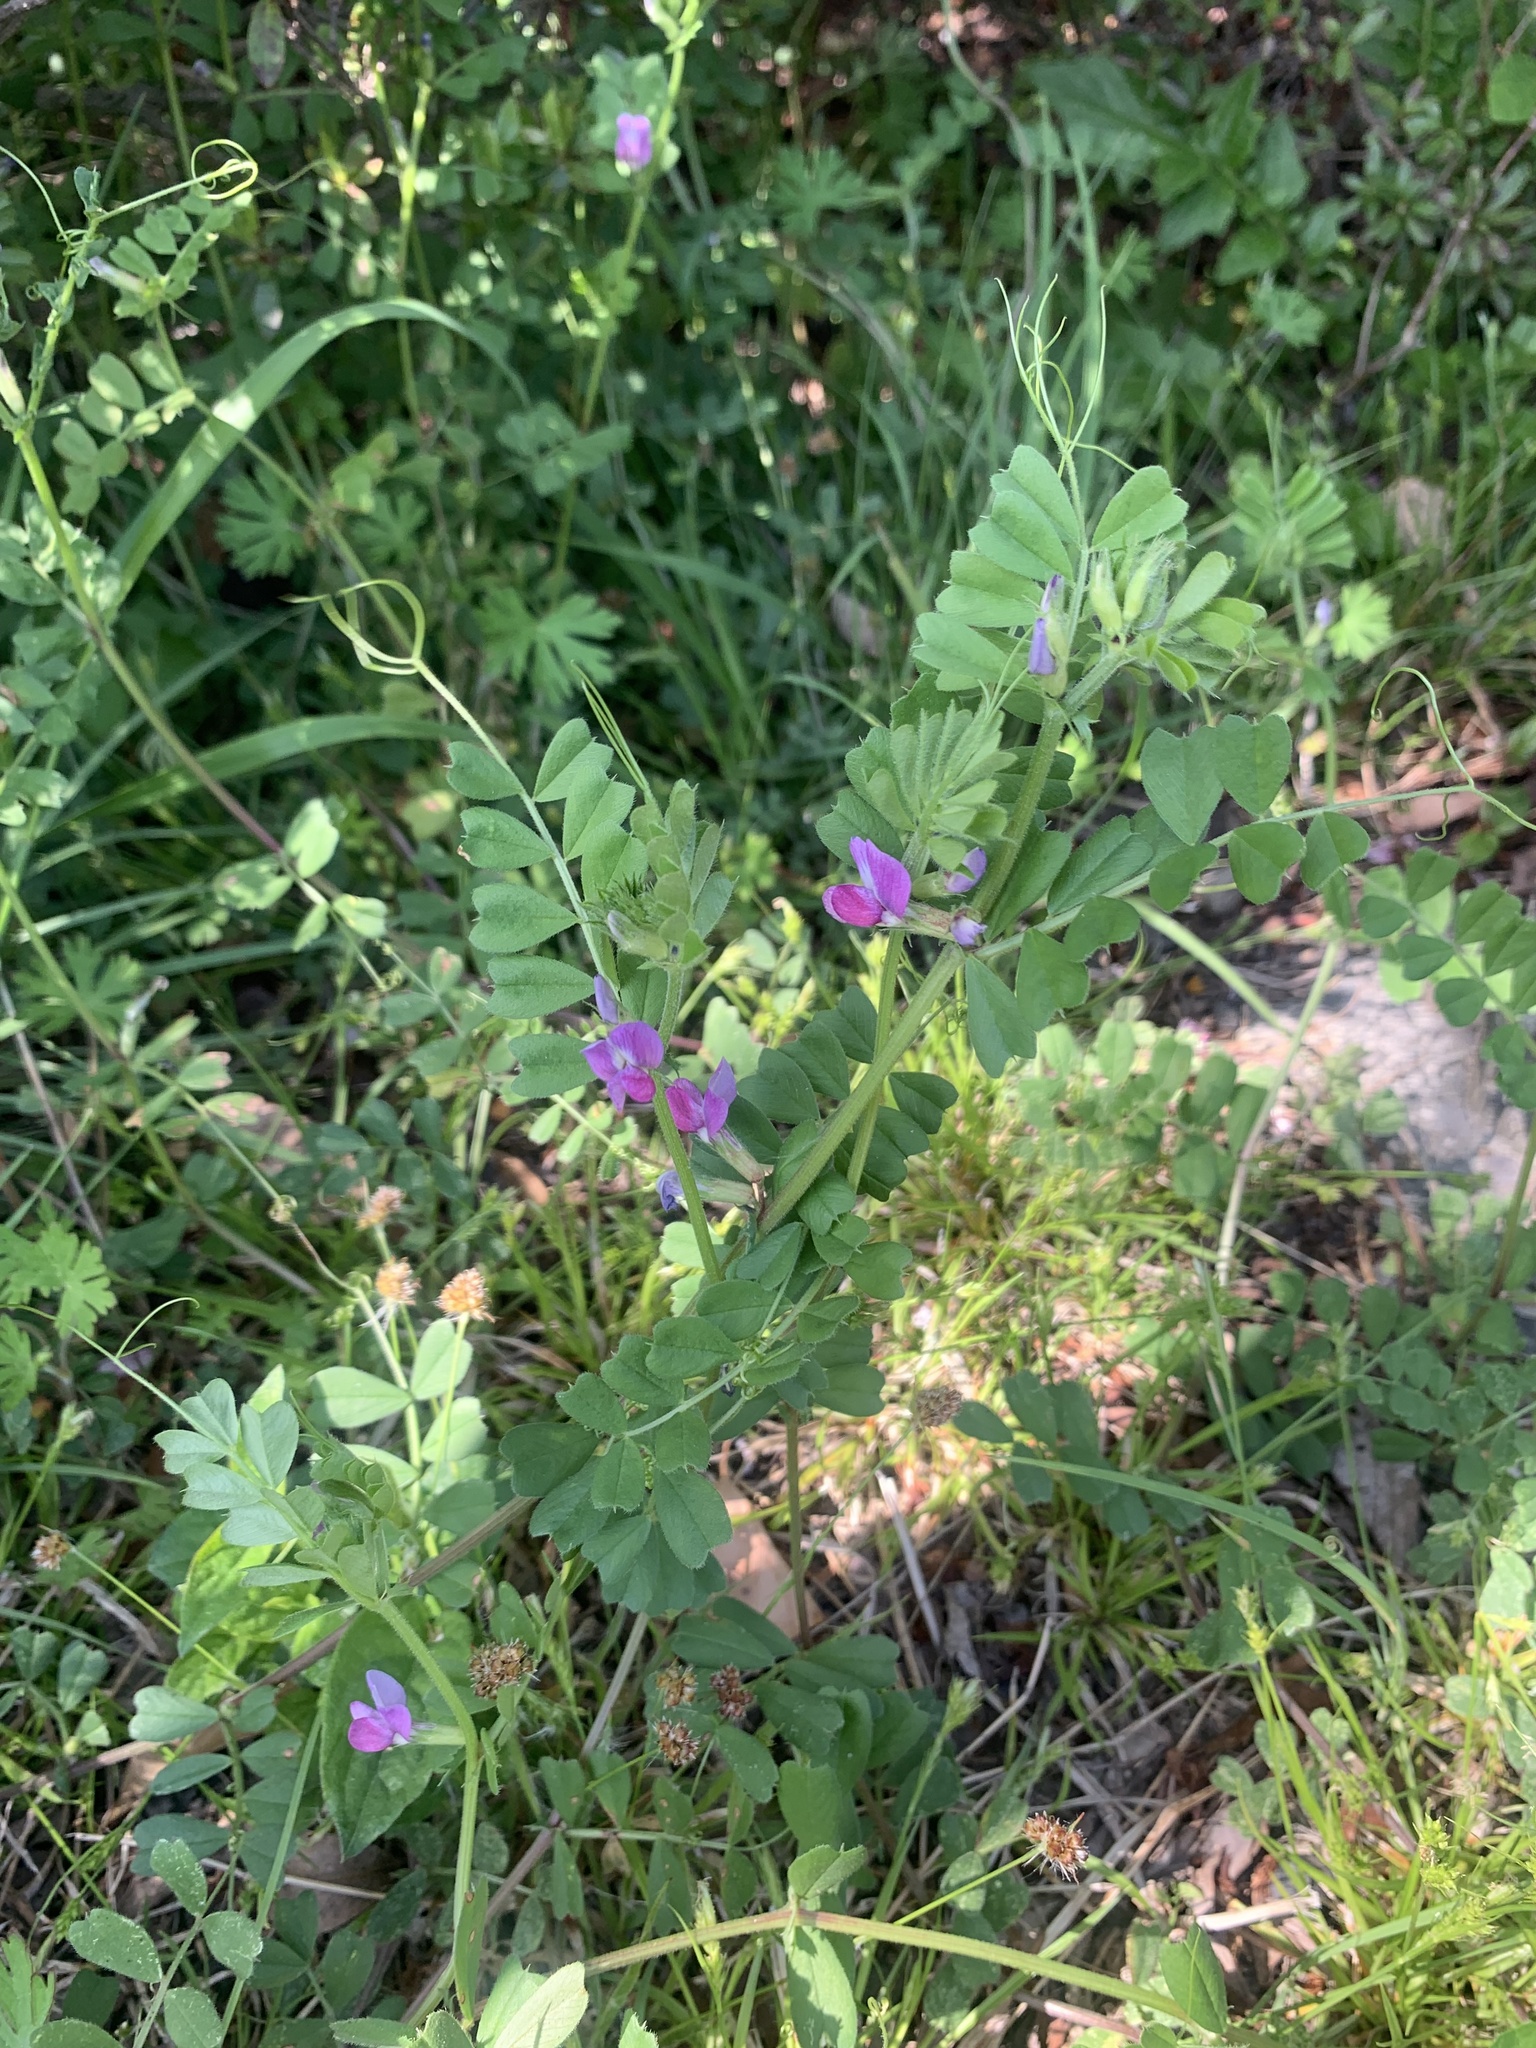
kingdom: Plantae
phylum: Tracheophyta
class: Magnoliopsida
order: Fabales
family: Fabaceae
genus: Vicia
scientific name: Vicia sativa
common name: Garden vetch
